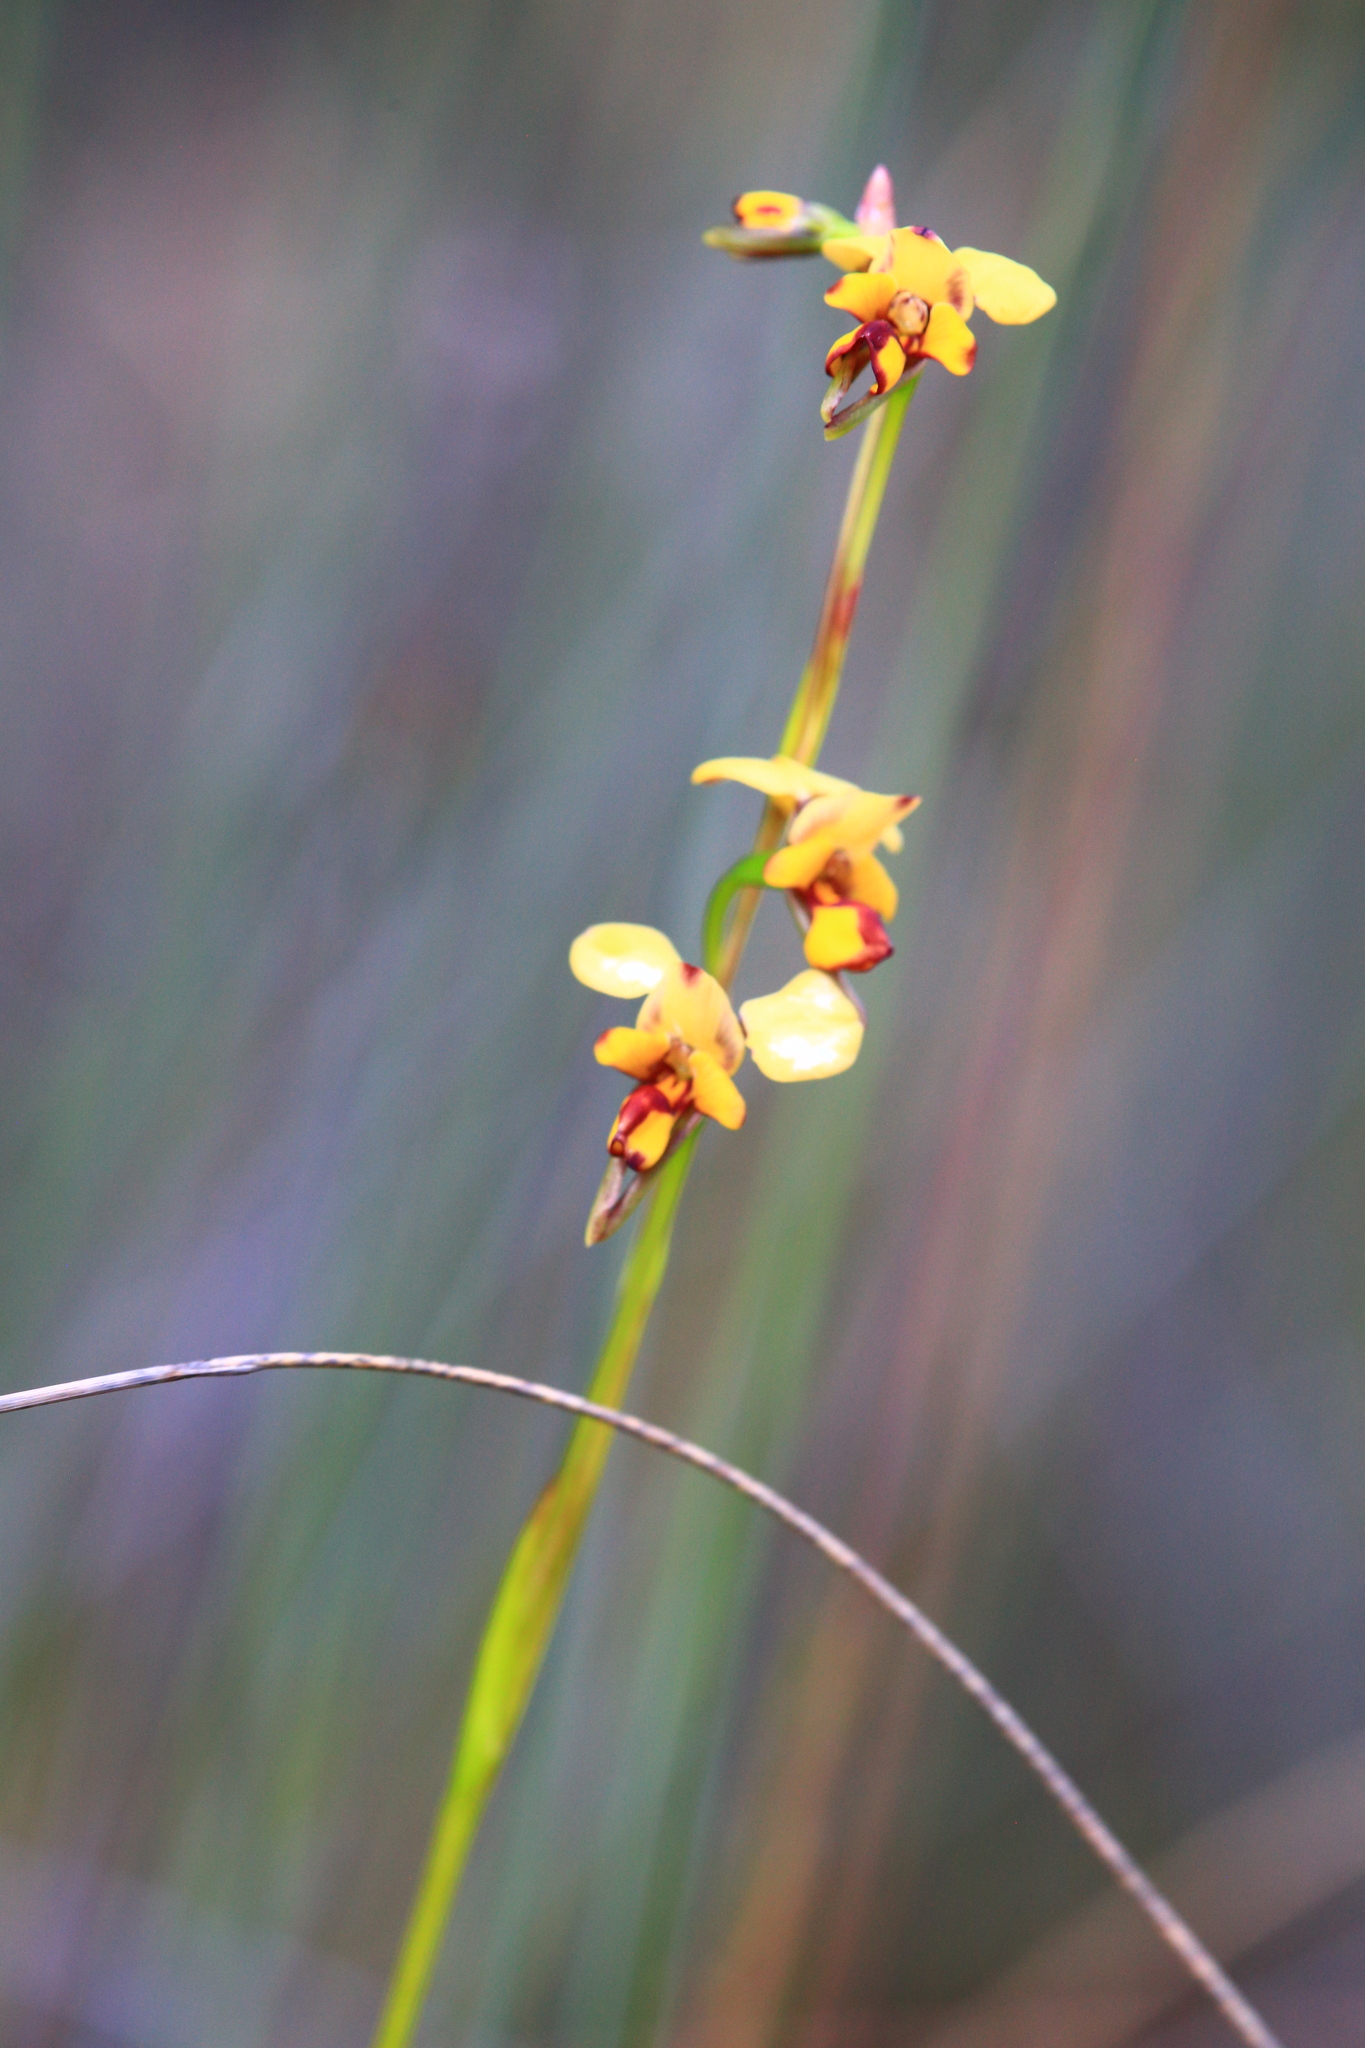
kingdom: Plantae
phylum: Tracheophyta
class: Liliopsida
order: Asparagales
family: Orchidaceae
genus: Diuris
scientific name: Diuris laxiflora
